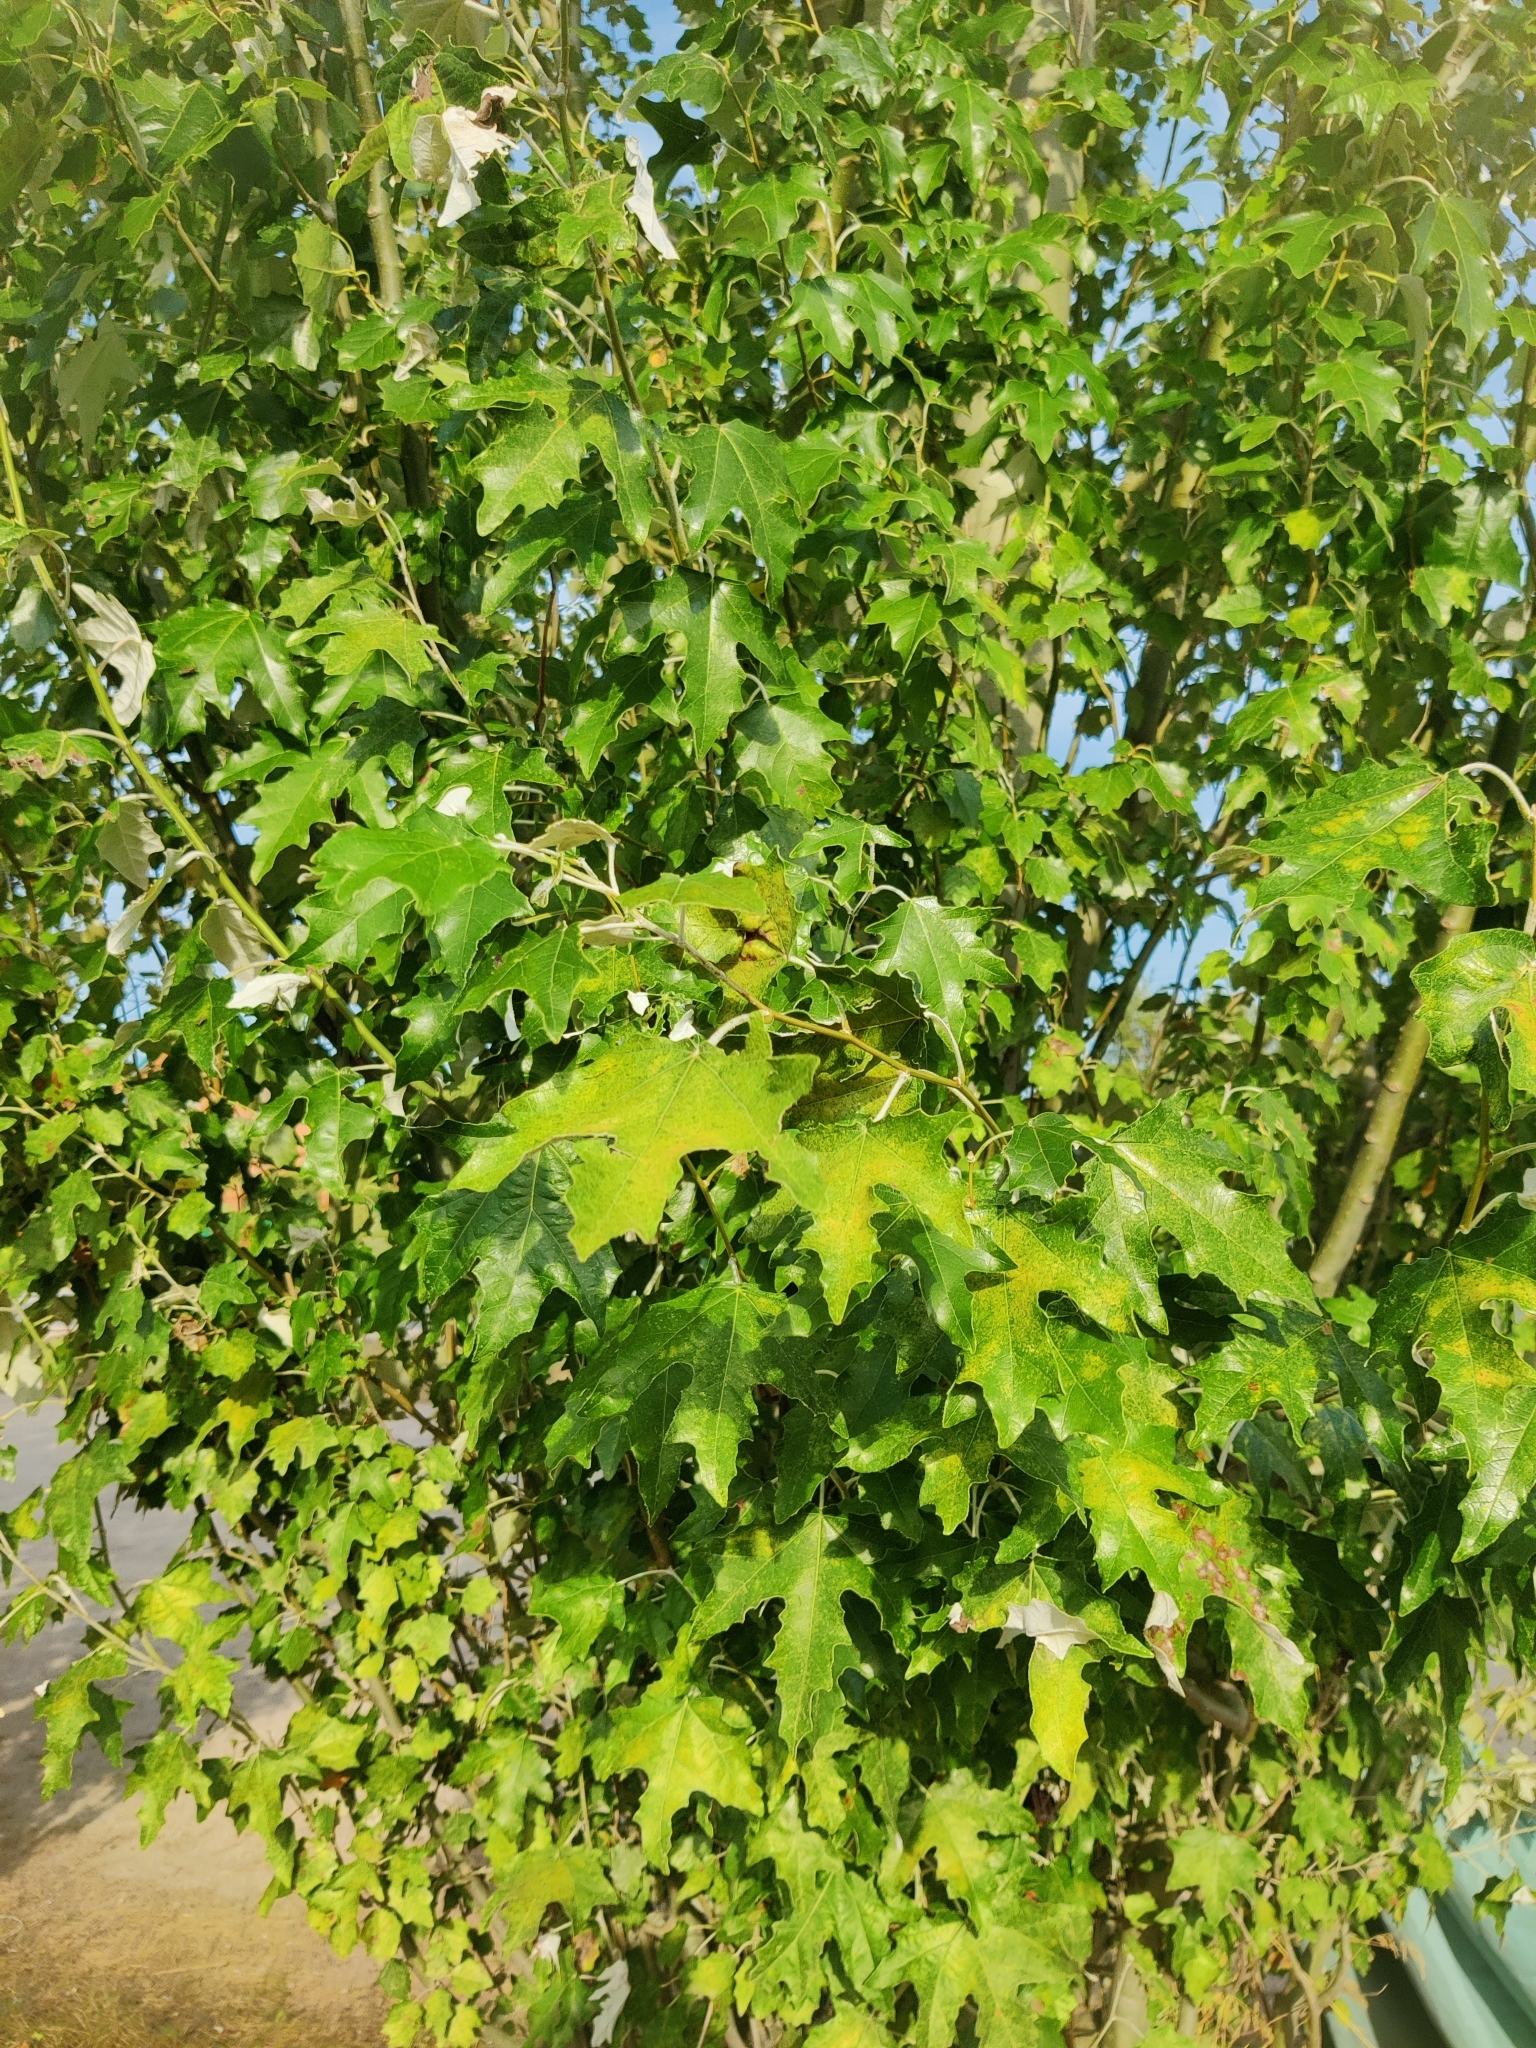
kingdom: Plantae
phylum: Tracheophyta
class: Magnoliopsida
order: Malpighiales
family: Salicaceae
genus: Populus
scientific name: Populus alba
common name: White poplar
